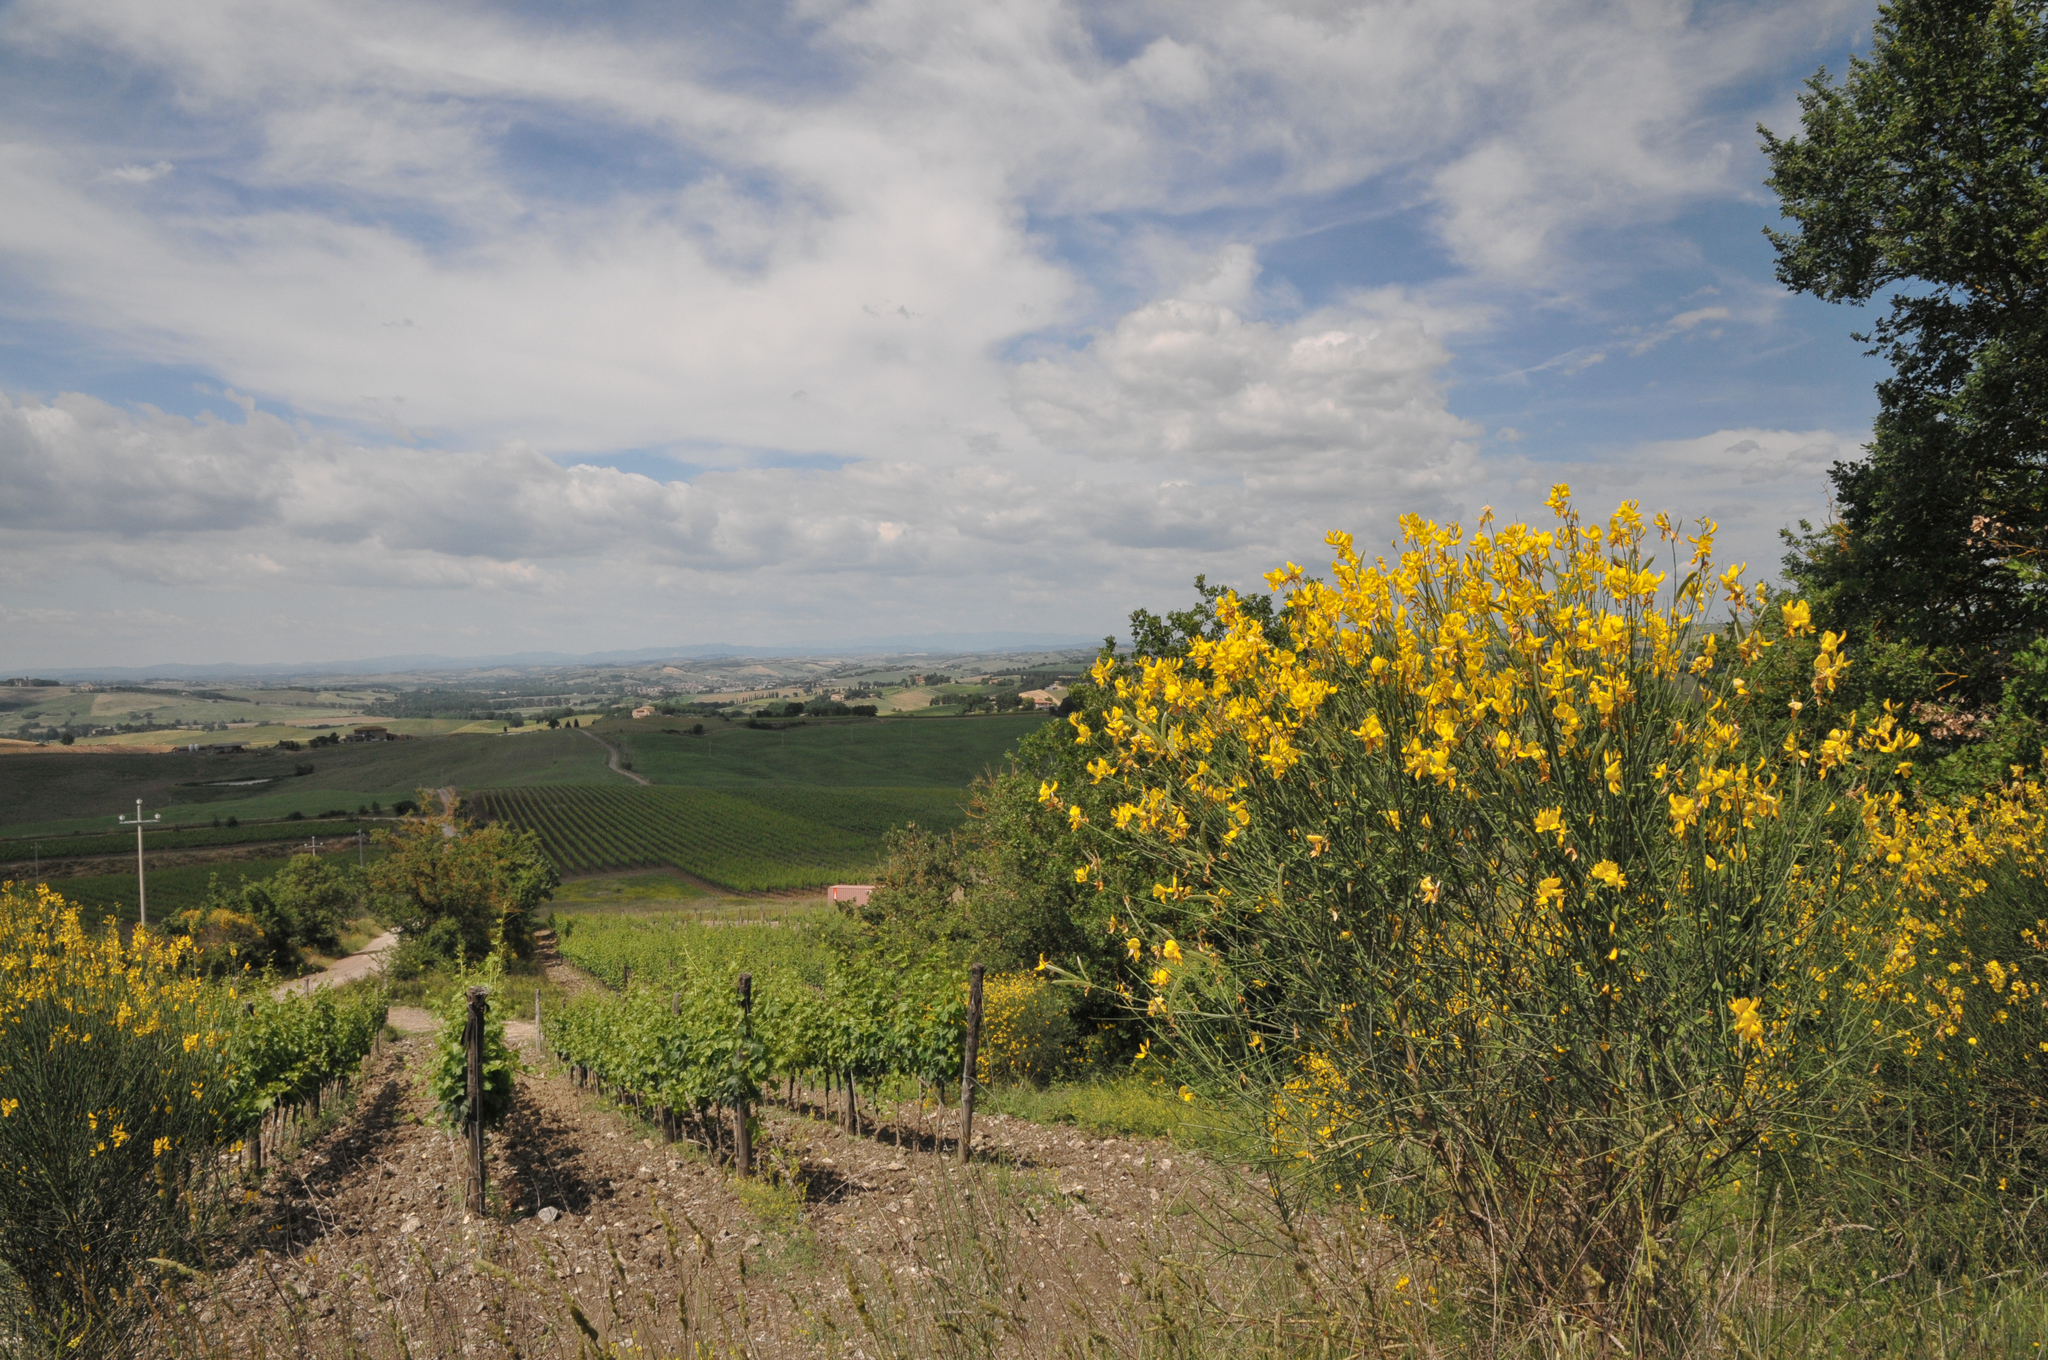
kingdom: Plantae
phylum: Tracheophyta
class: Magnoliopsida
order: Fabales
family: Fabaceae
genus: Spartium
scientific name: Spartium junceum
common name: Spanish broom
